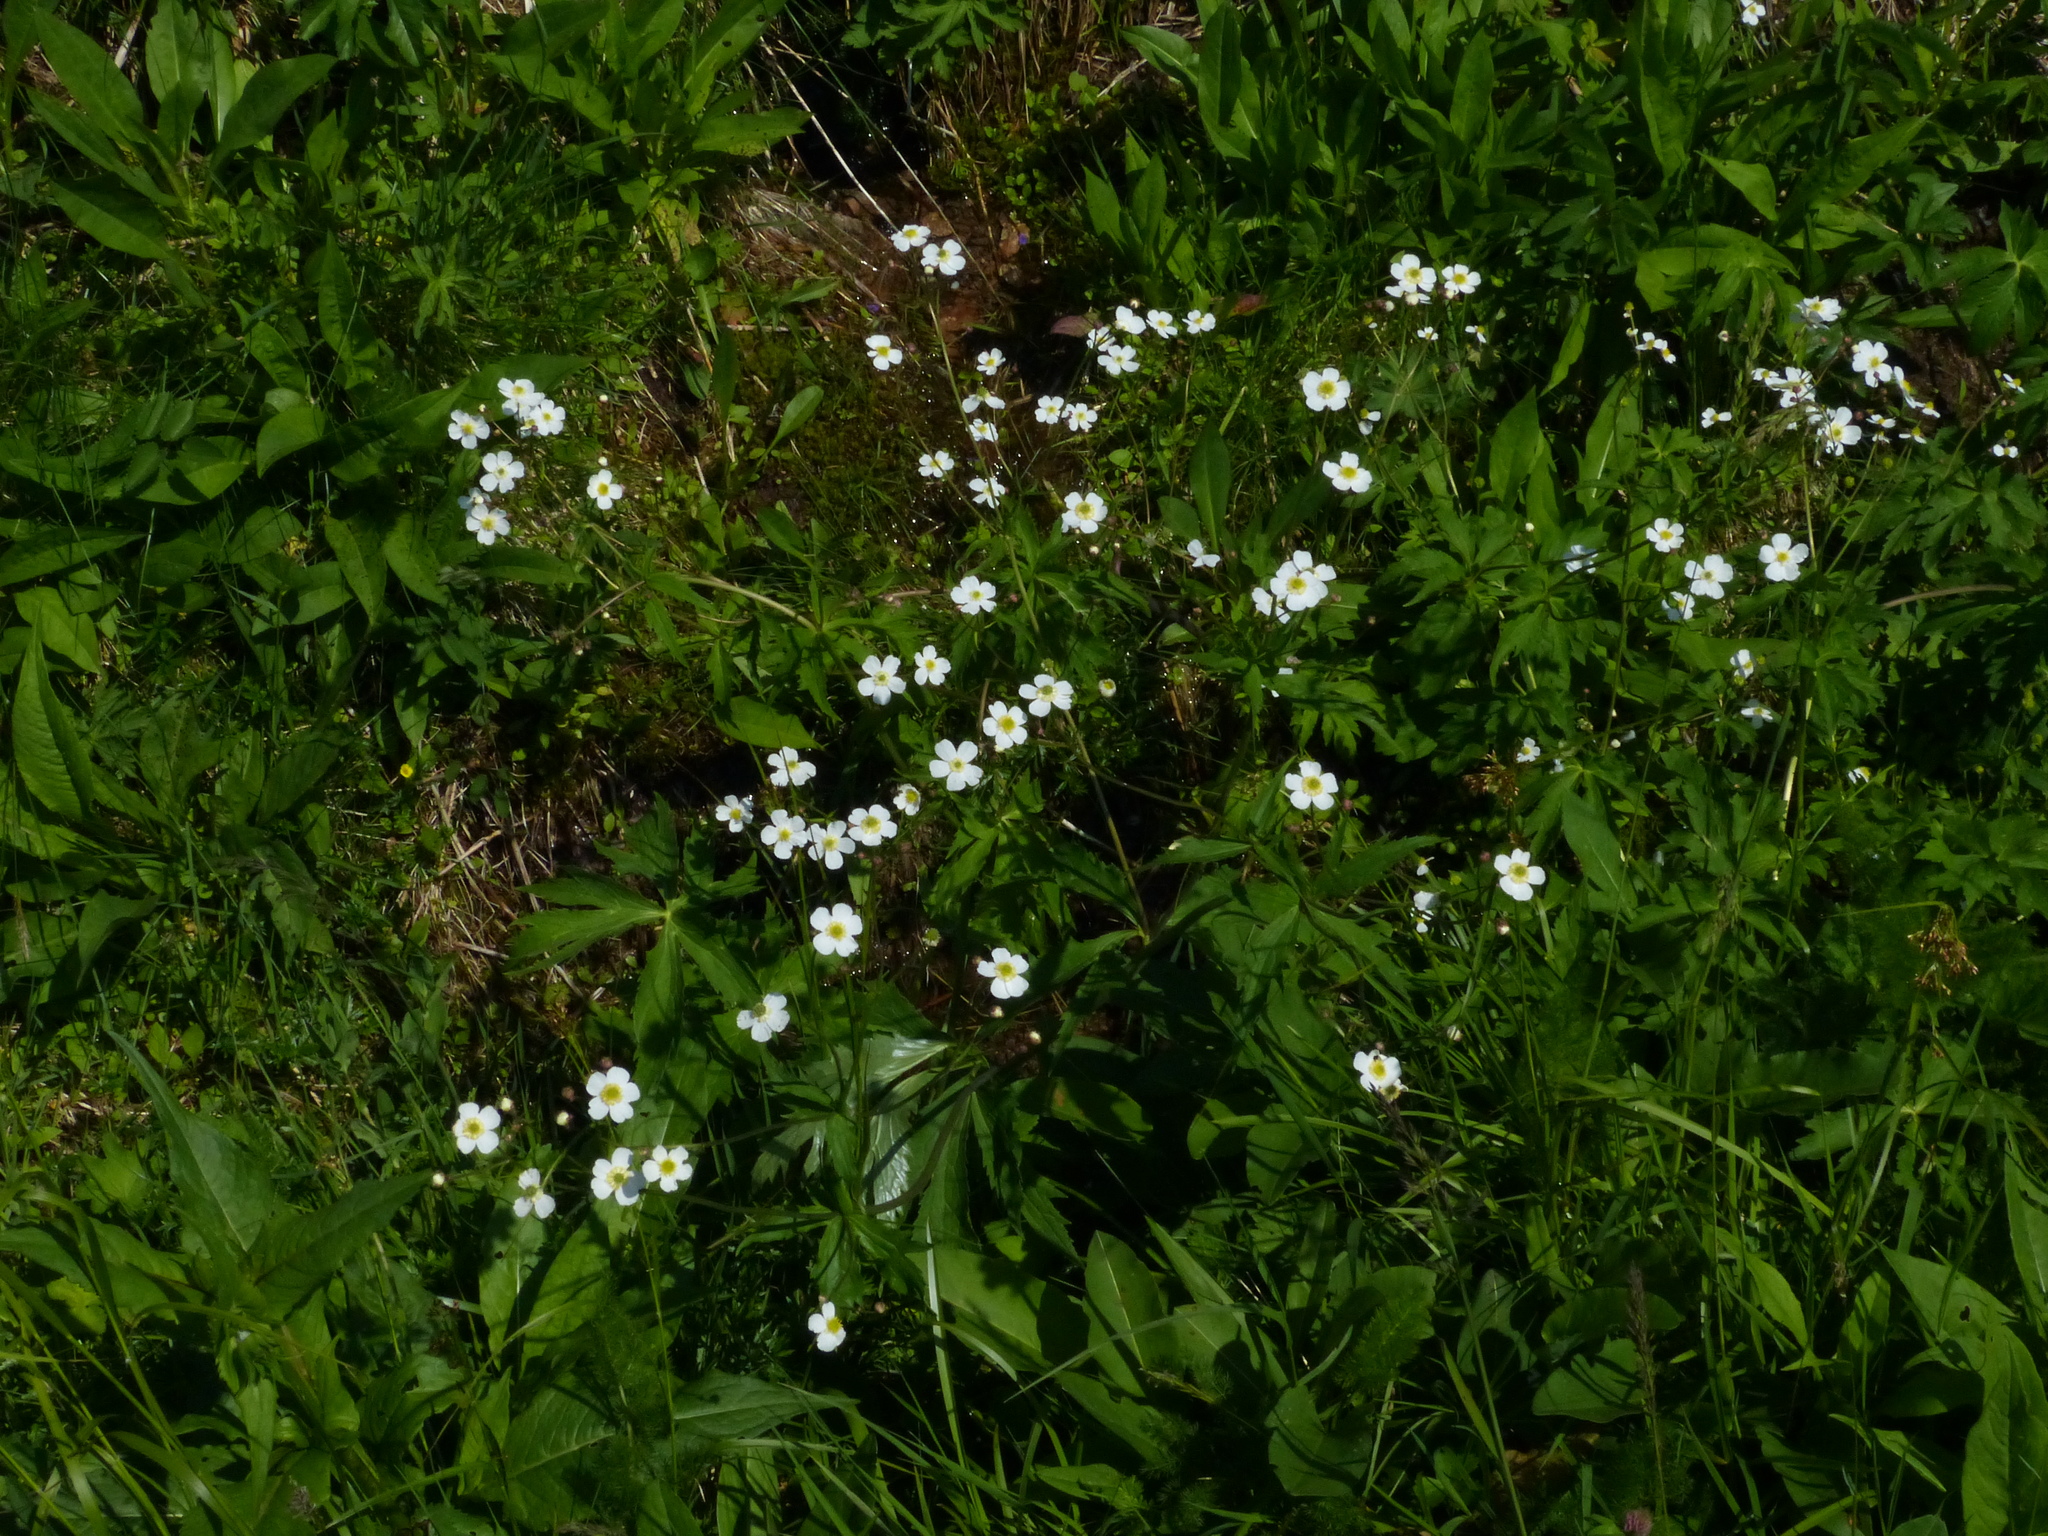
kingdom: Plantae
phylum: Tracheophyta
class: Magnoliopsida
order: Ranunculales
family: Ranunculaceae
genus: Ranunculus
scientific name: Ranunculus aconitifolius
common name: Aconite-leaved buttercup
